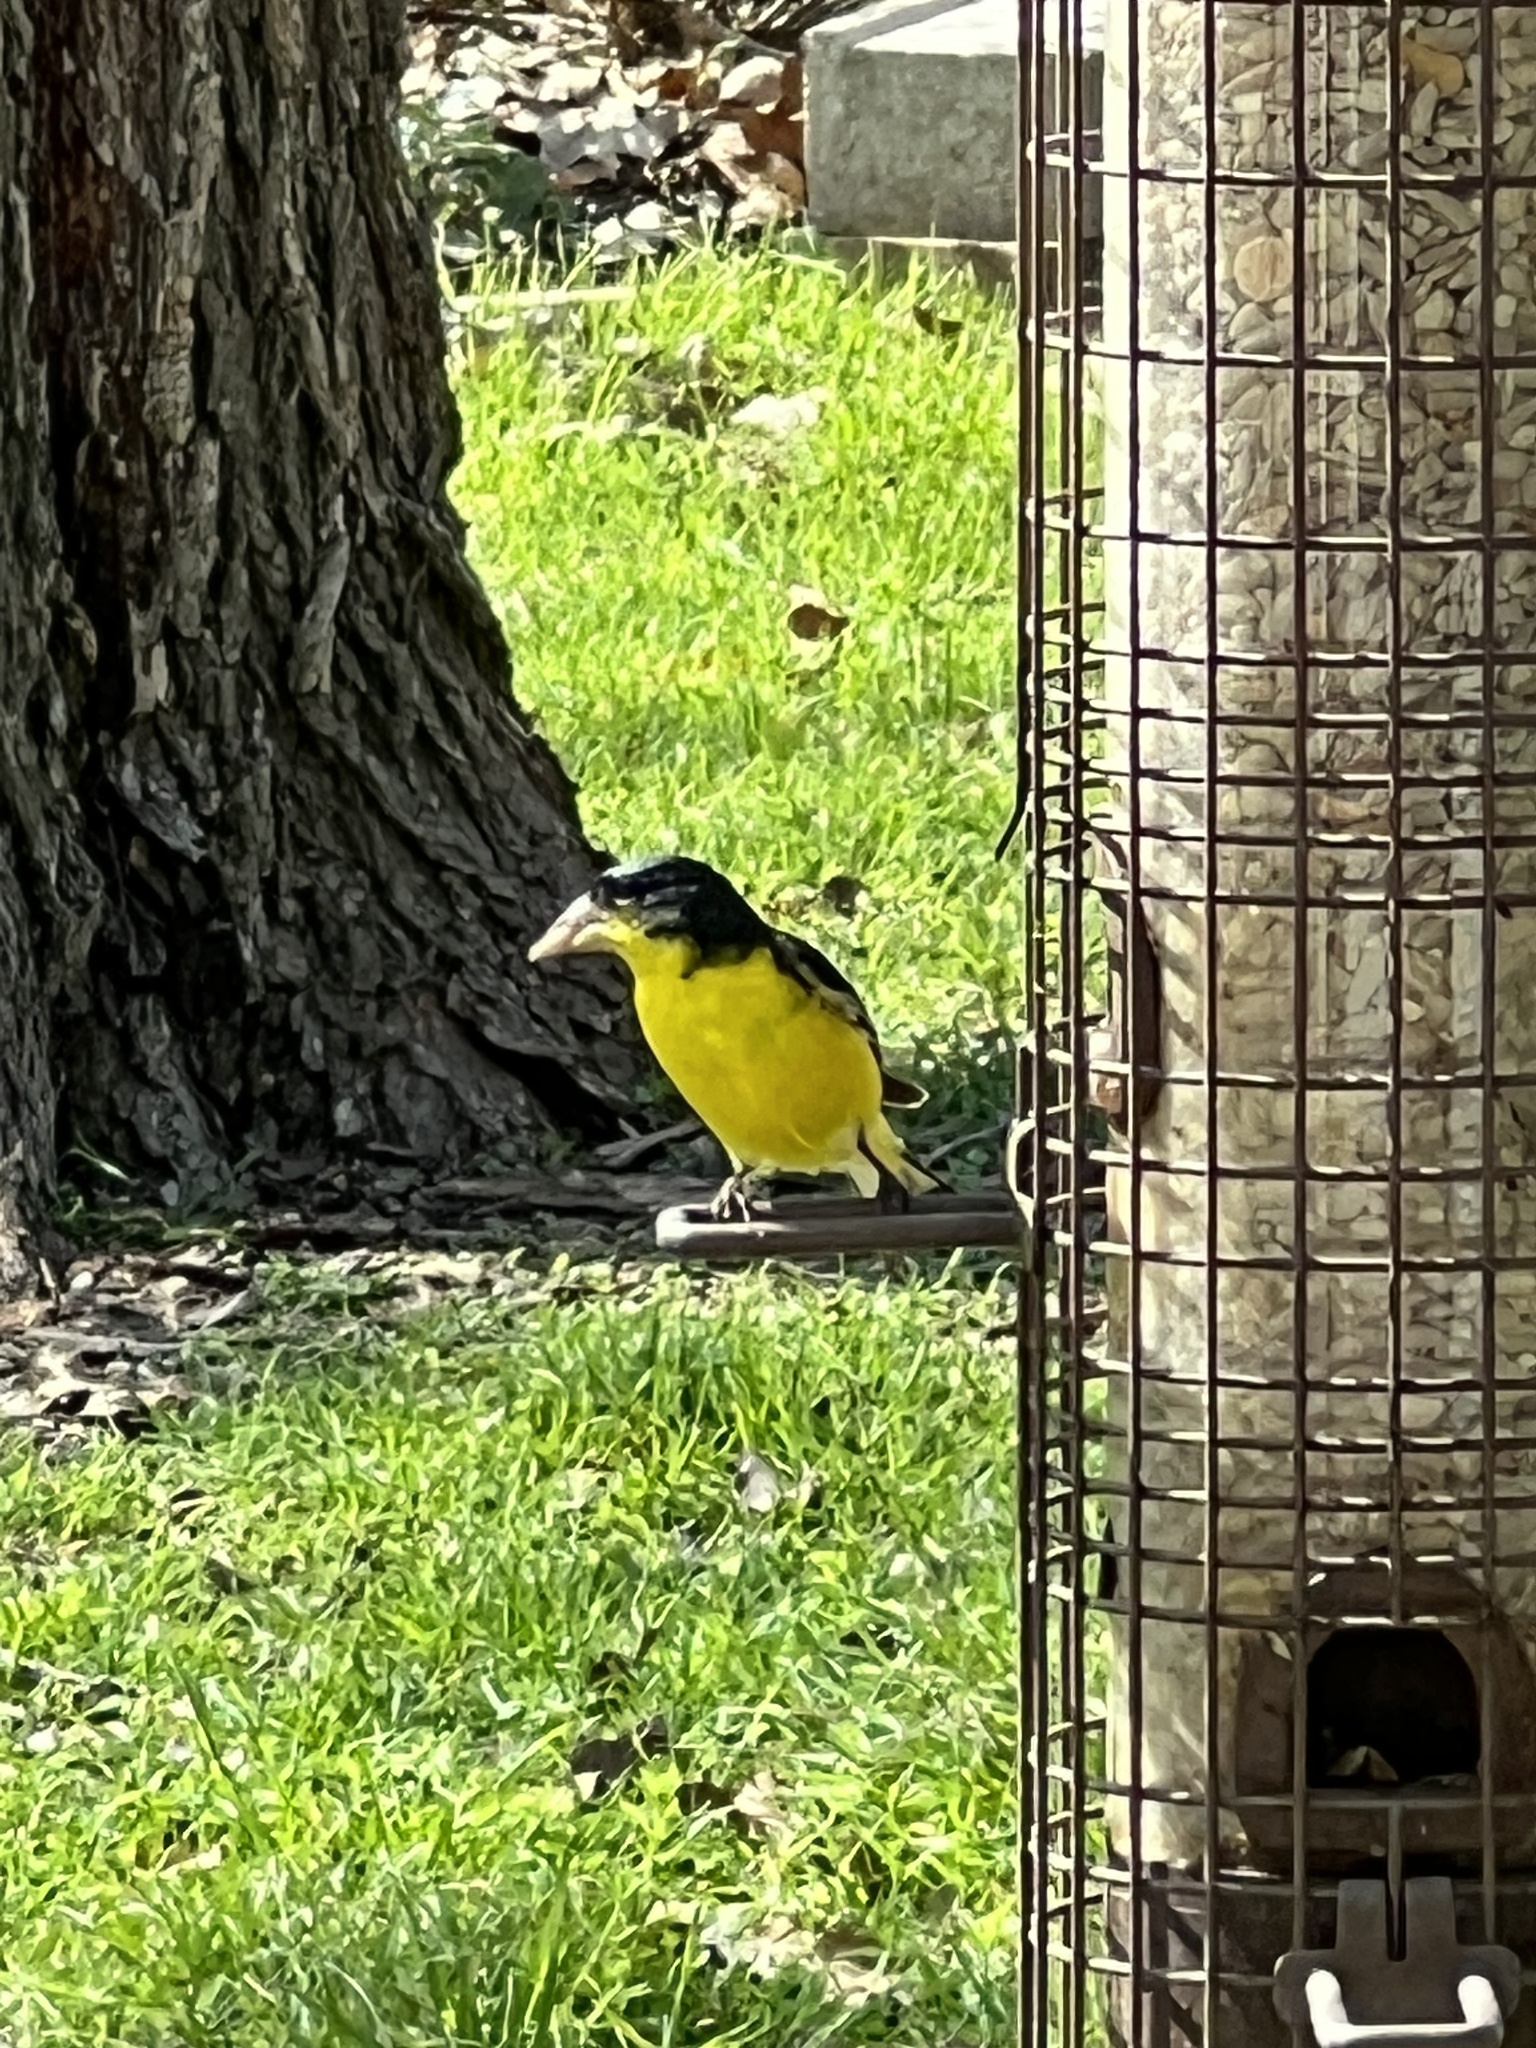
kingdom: Animalia
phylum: Chordata
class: Aves
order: Passeriformes
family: Fringillidae
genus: Spinus
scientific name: Spinus psaltria
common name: Lesser goldfinch
